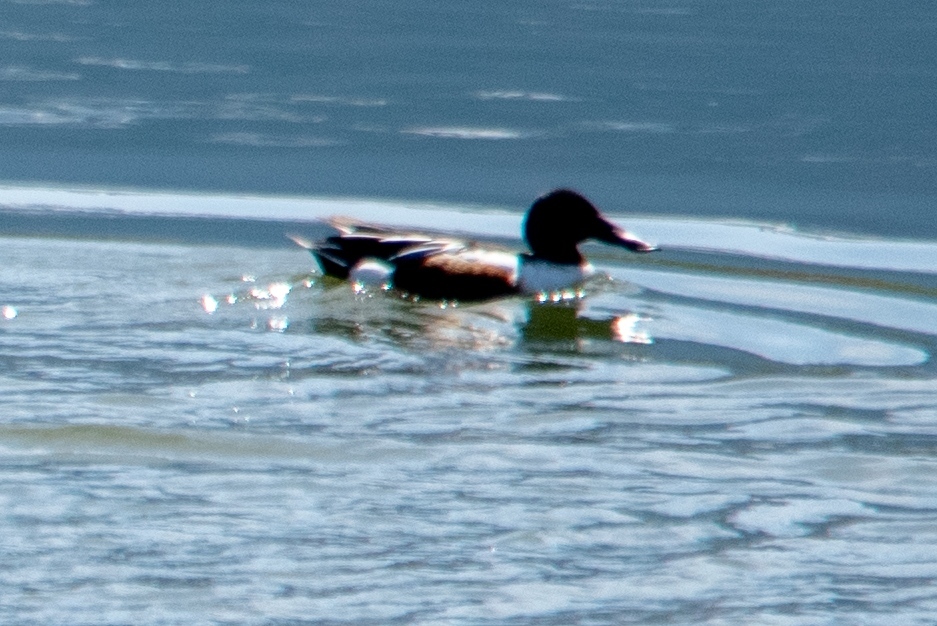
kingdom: Animalia
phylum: Chordata
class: Aves
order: Anseriformes
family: Anatidae
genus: Spatula
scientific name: Spatula clypeata
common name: Northern shoveler
